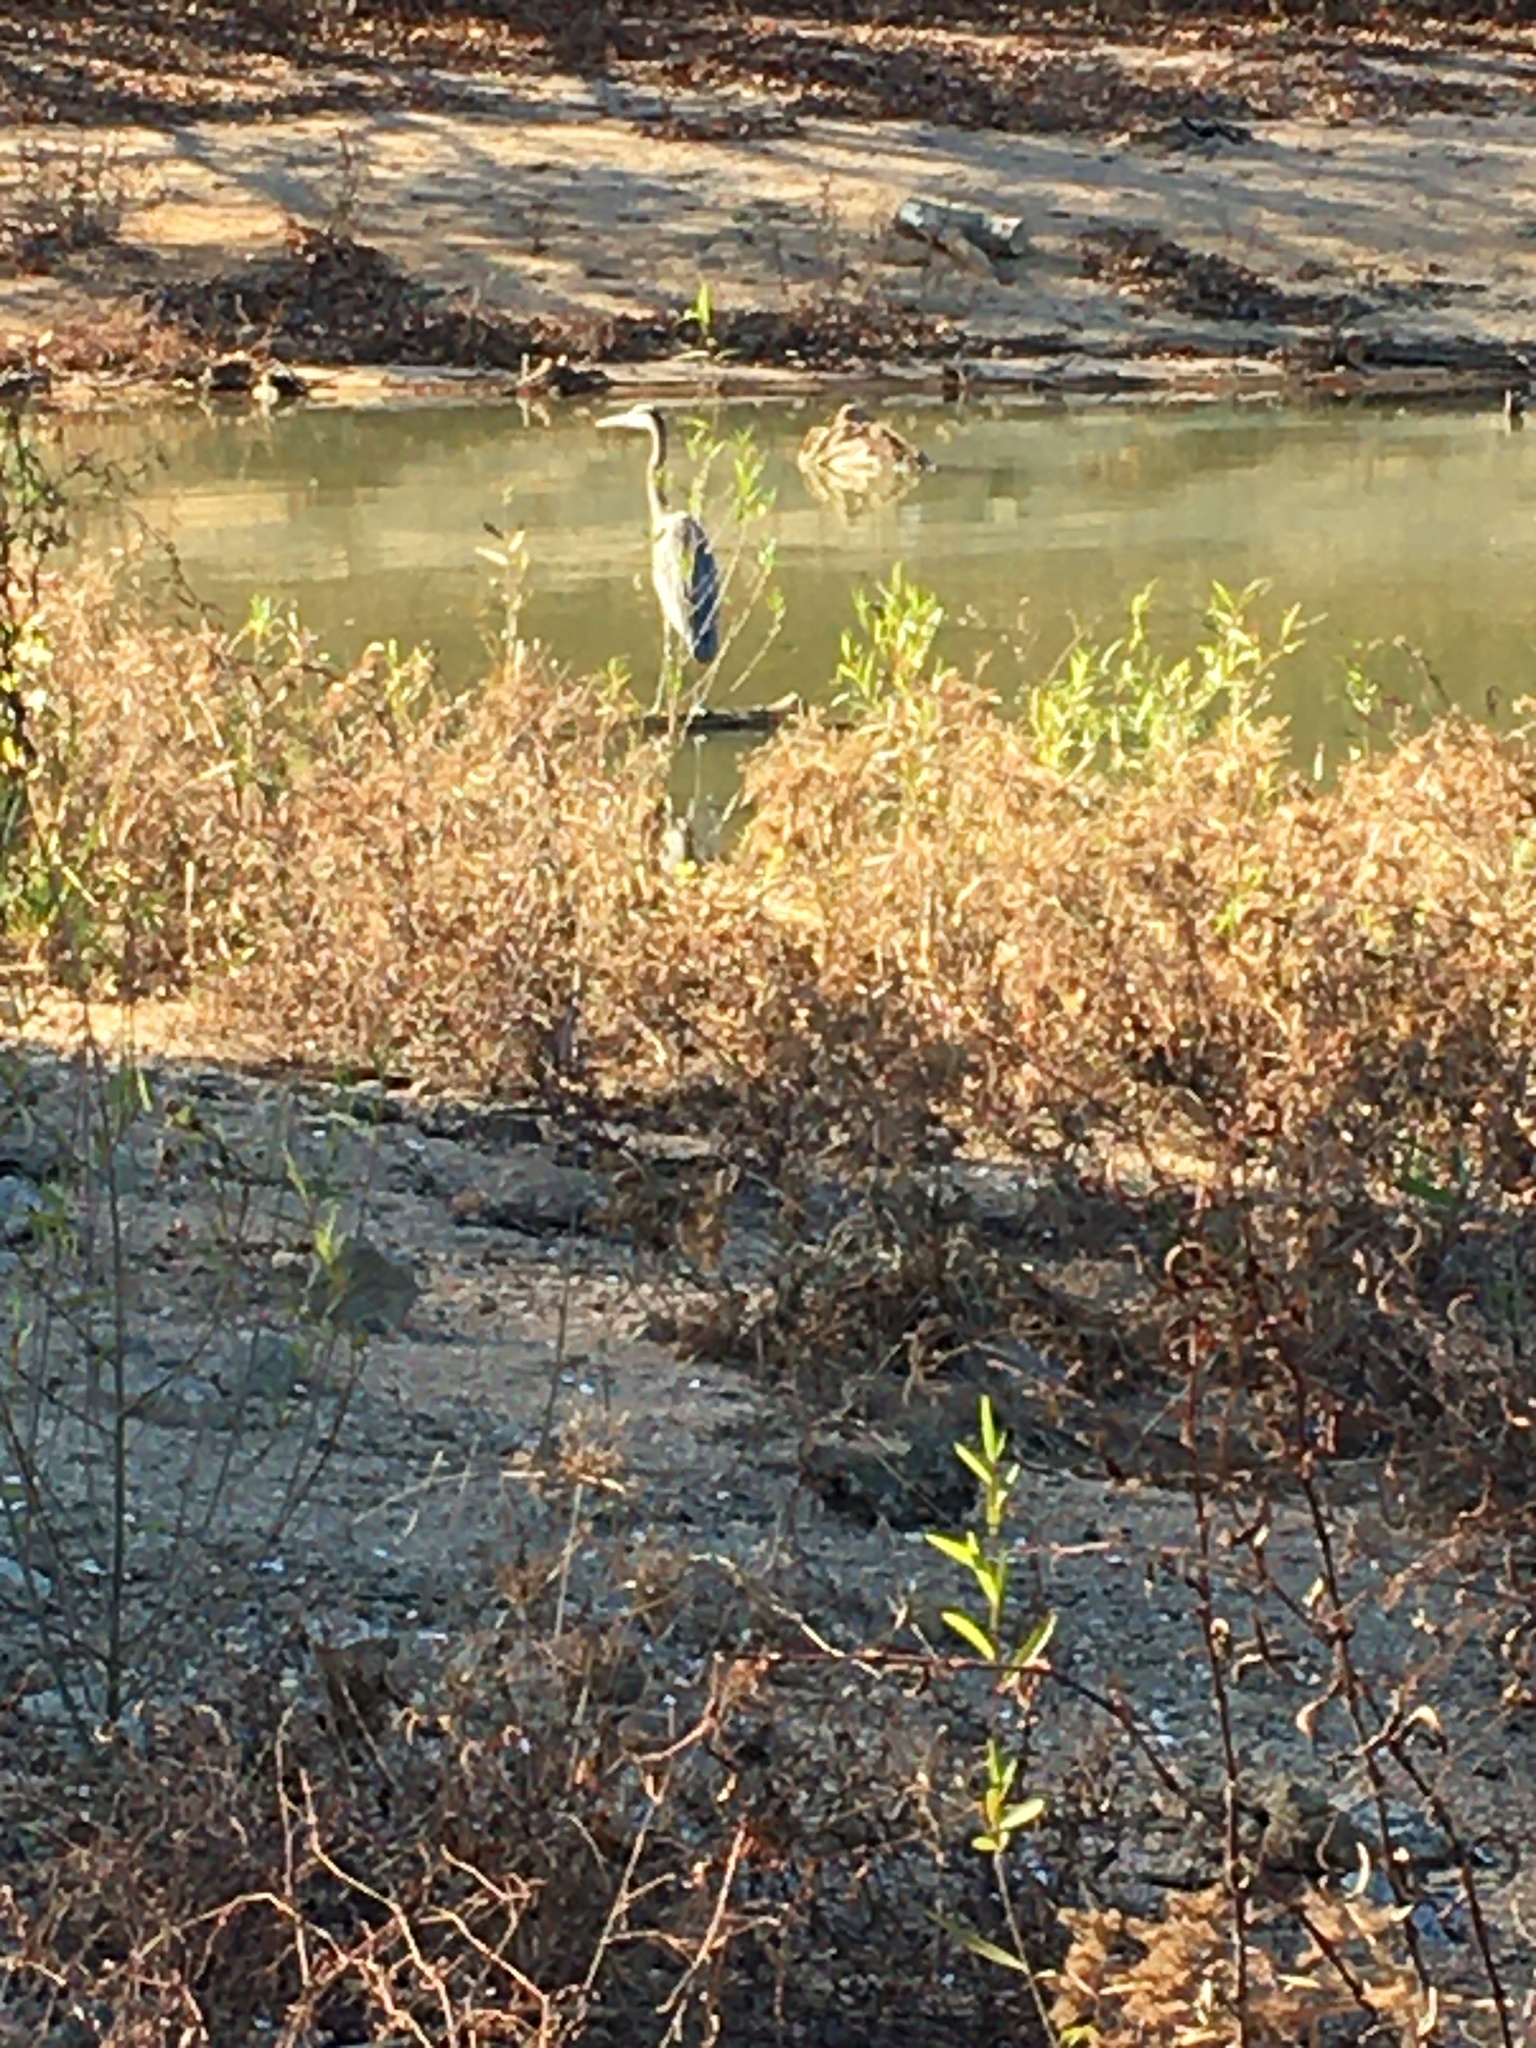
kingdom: Animalia
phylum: Chordata
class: Aves
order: Pelecaniformes
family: Ardeidae
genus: Ardea
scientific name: Ardea herodias
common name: Great blue heron
